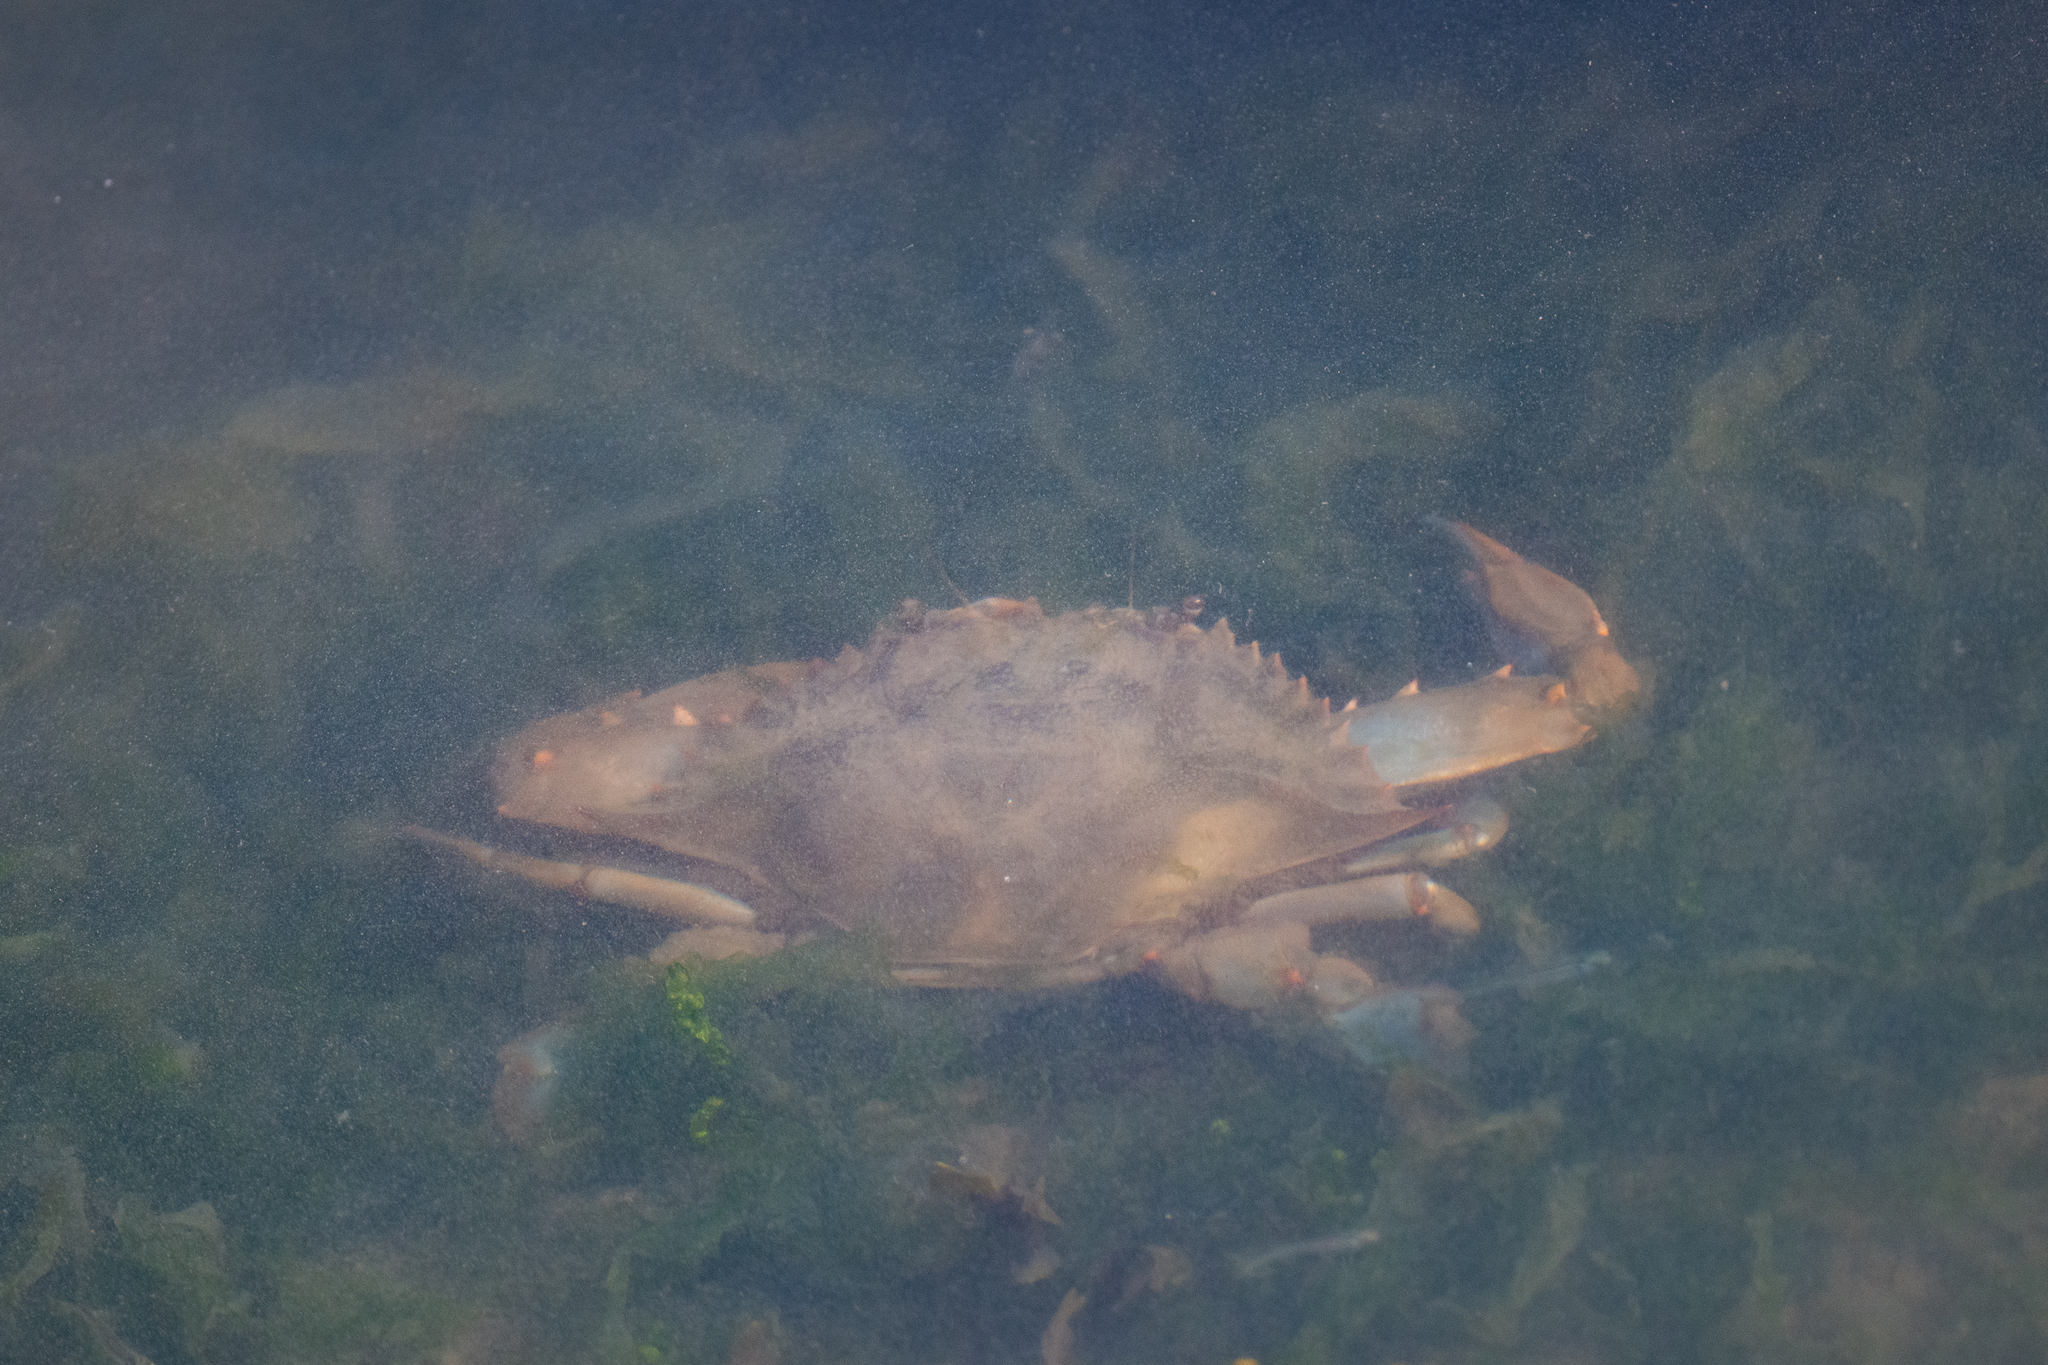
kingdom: Animalia
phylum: Arthropoda
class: Malacostraca
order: Decapoda
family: Portunidae
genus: Callinectes
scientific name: Callinectes sapidus
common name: Blue crab
